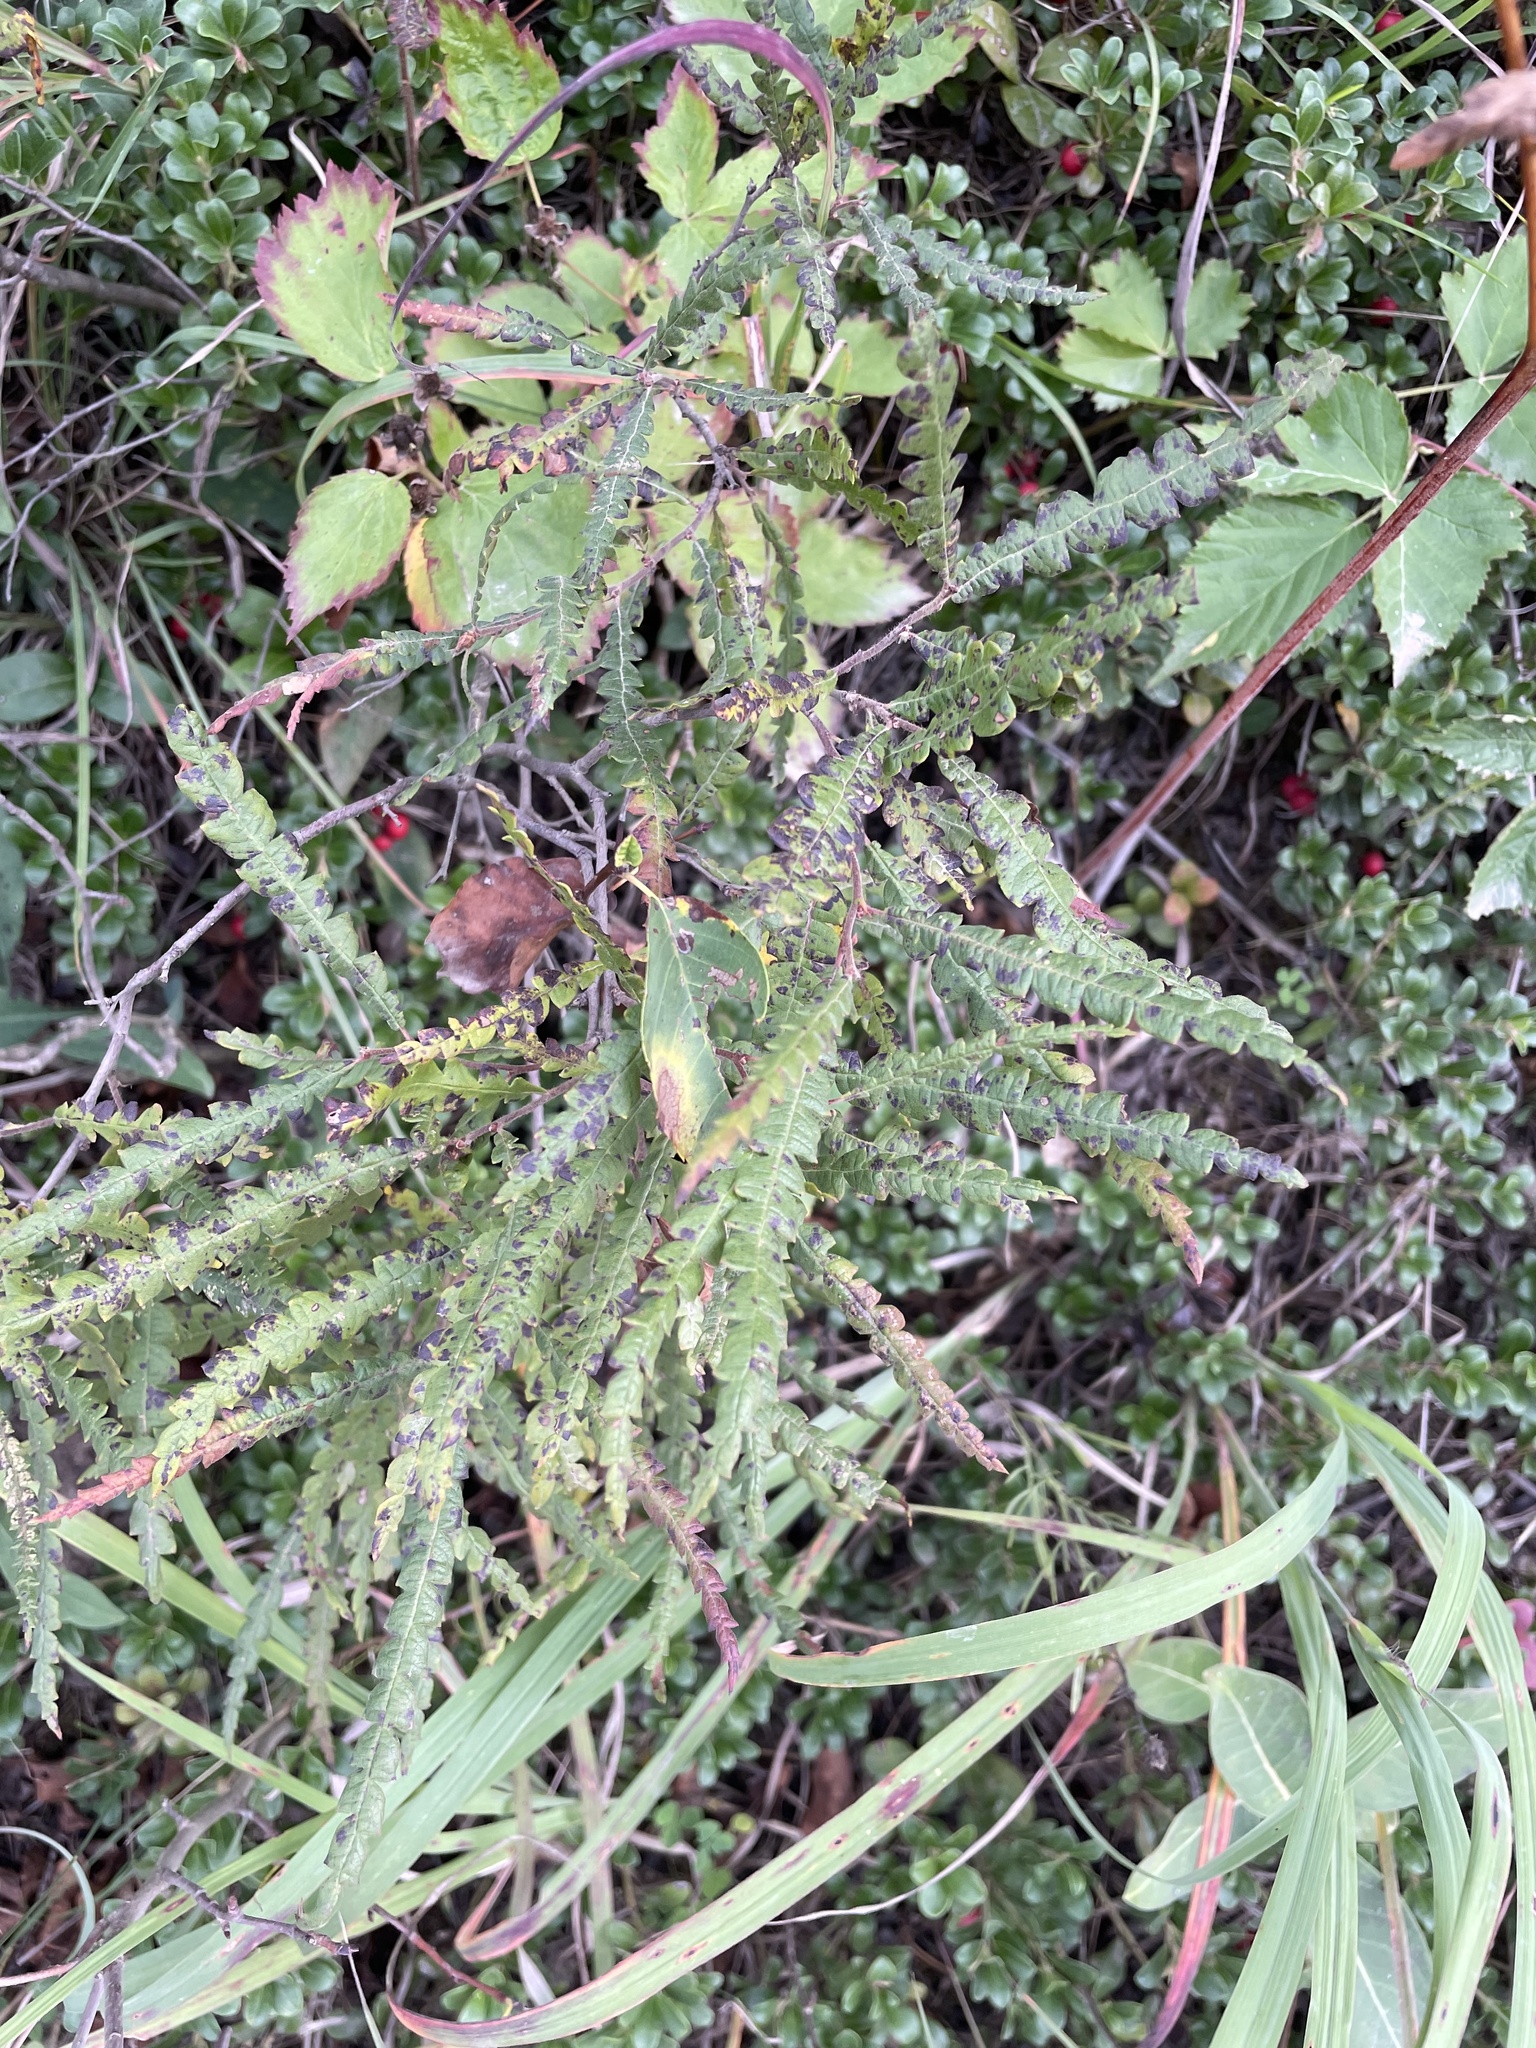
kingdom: Plantae
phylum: Tracheophyta
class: Magnoliopsida
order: Fagales
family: Myricaceae
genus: Comptonia
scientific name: Comptonia peregrina
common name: Sweet-fern
